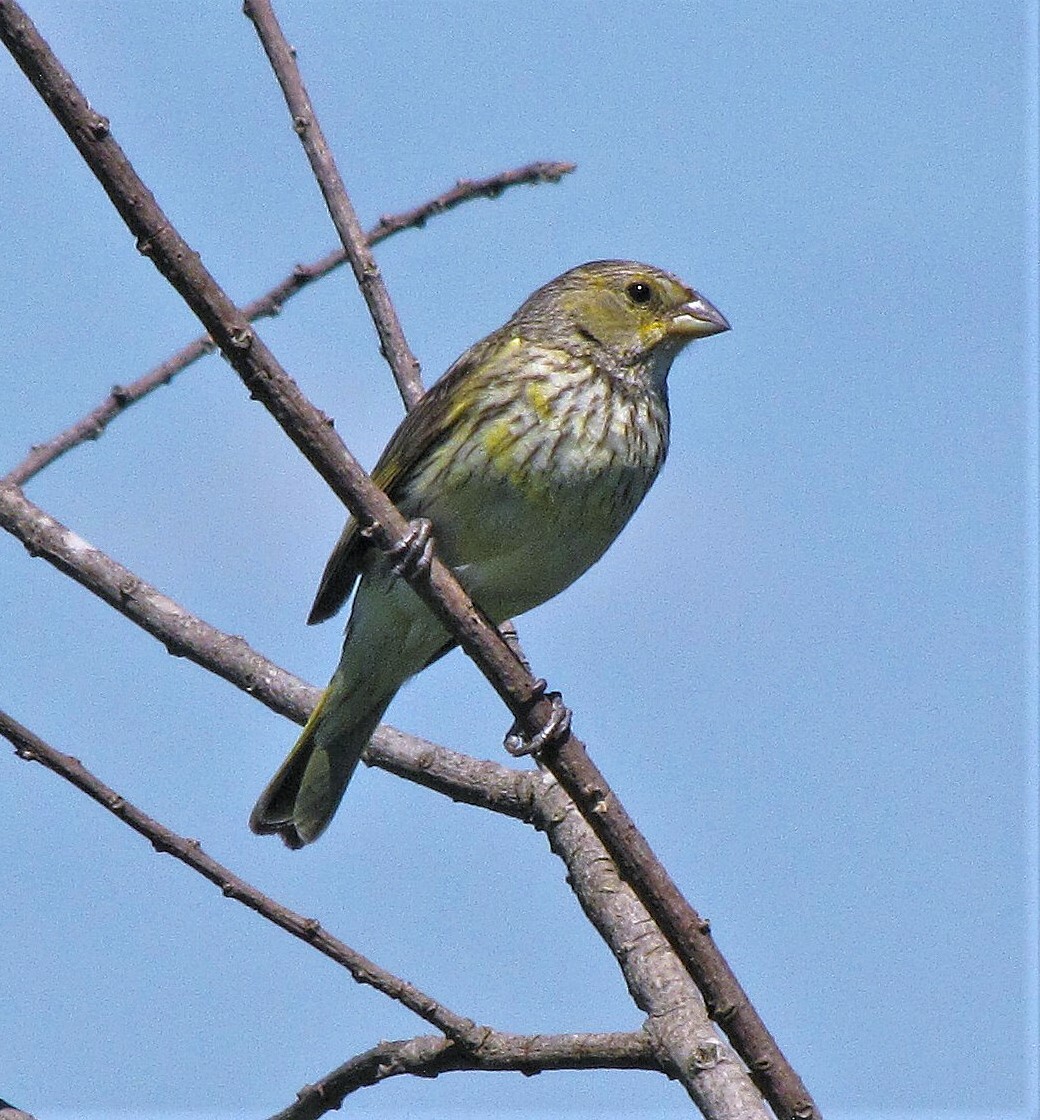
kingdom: Animalia
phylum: Chordata
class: Aves
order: Passeriformes
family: Thraupidae
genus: Sicalis
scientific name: Sicalis flaveola
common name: Saffron finch
